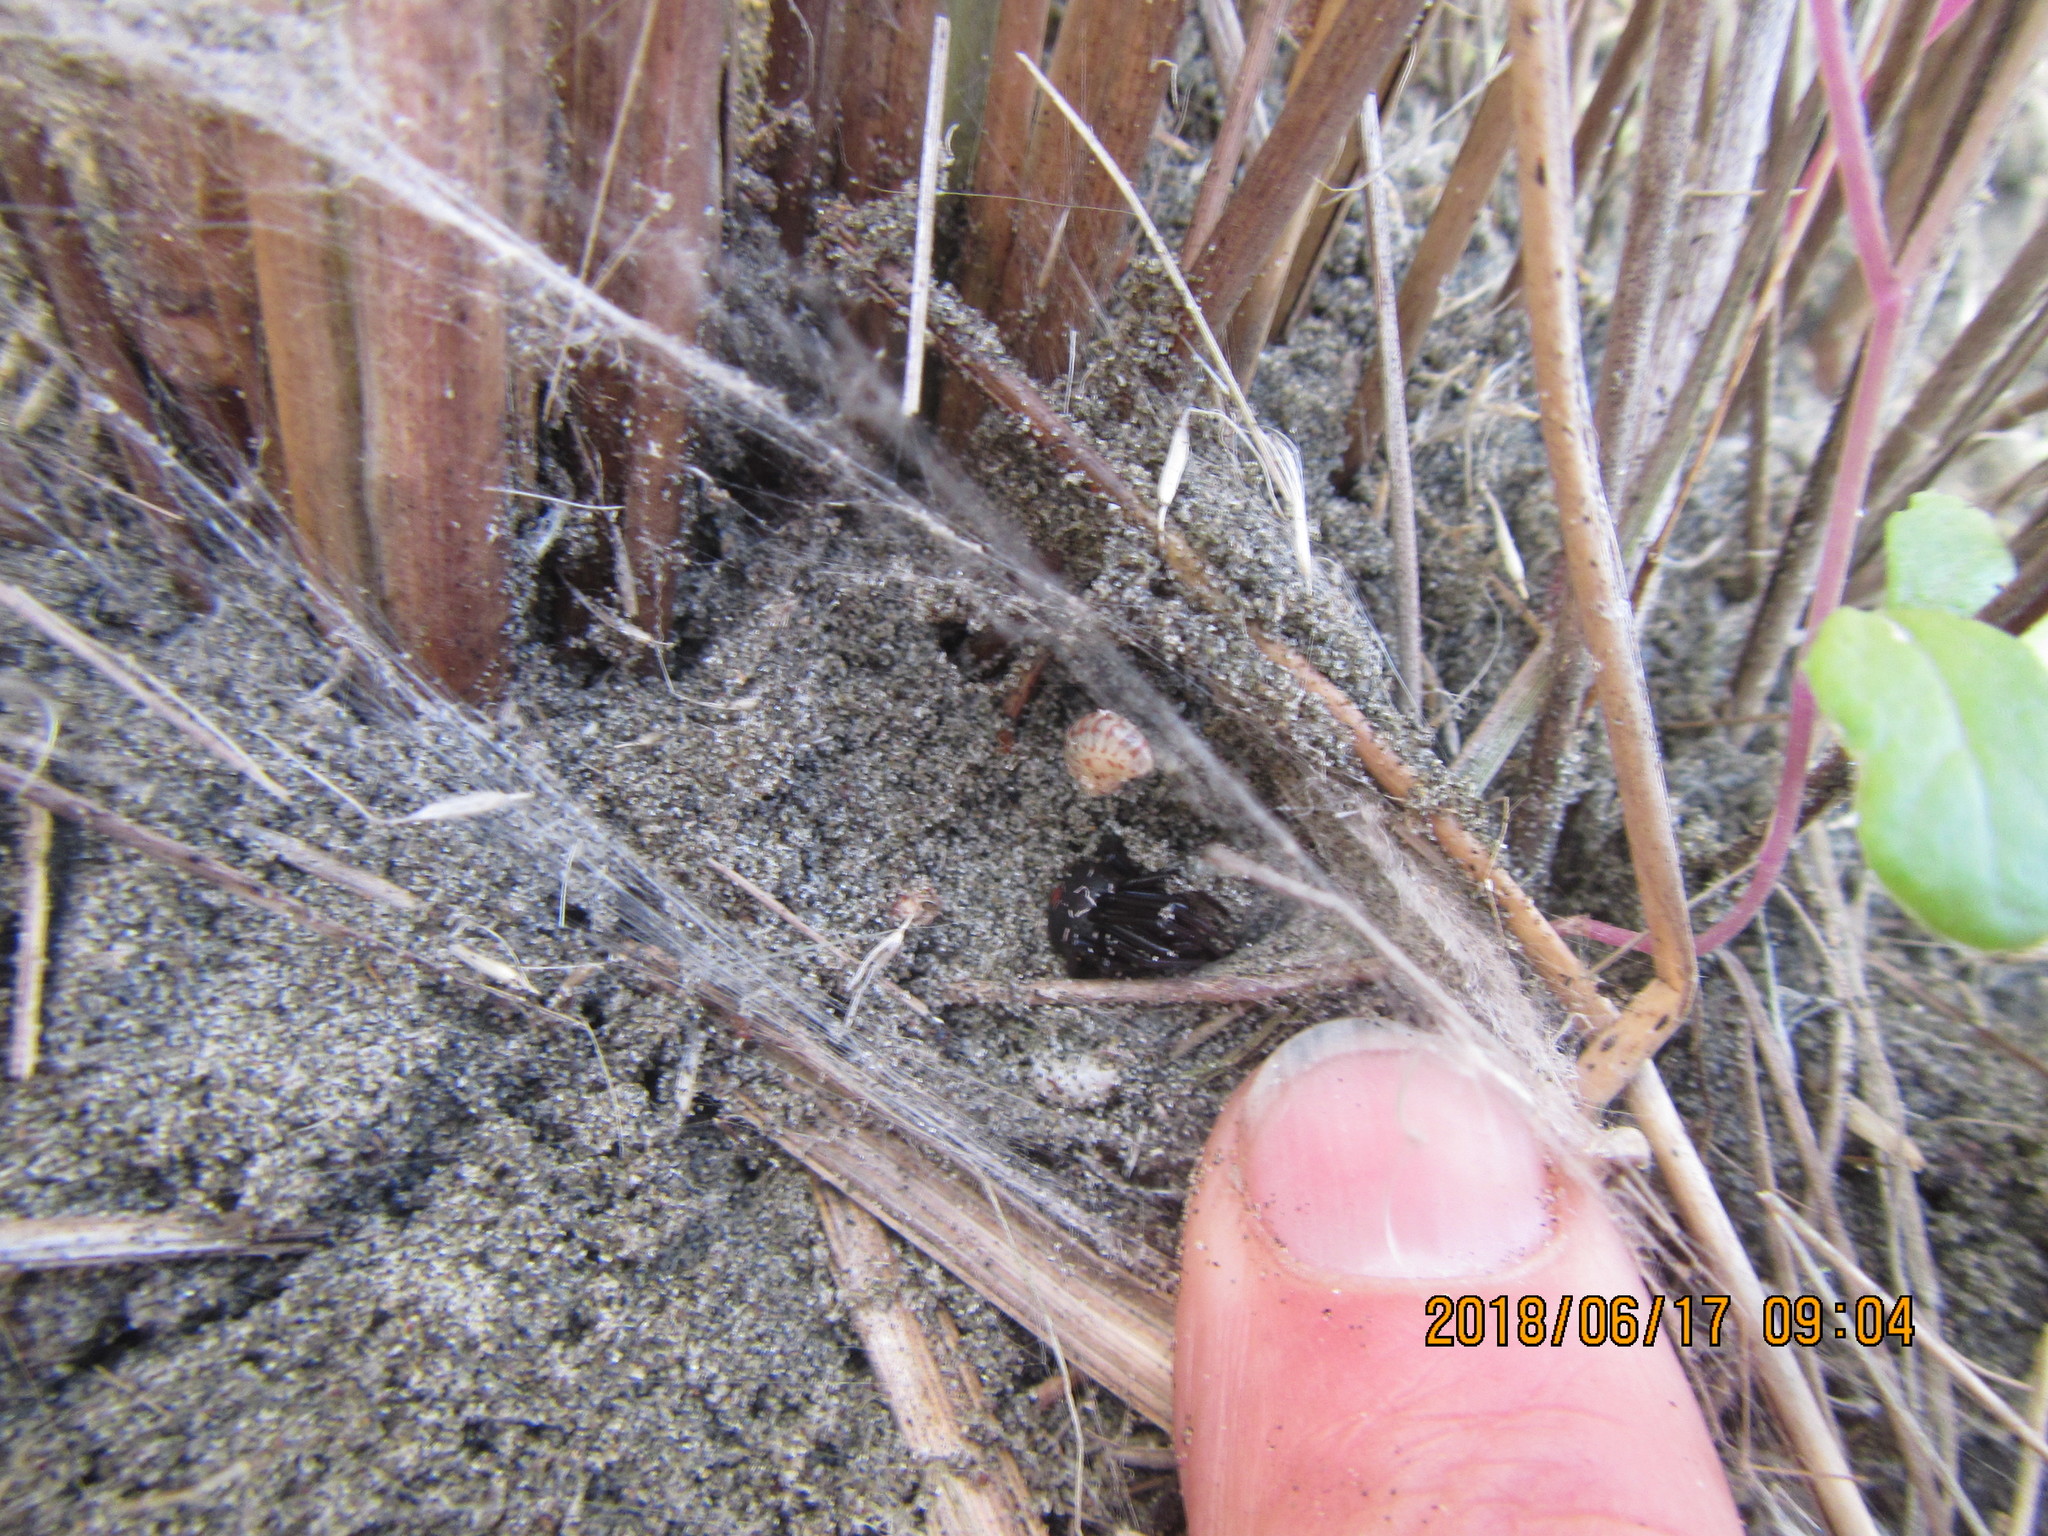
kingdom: Animalia
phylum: Arthropoda
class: Arachnida
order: Araneae
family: Theridiidae
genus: Latrodectus
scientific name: Latrodectus katipo
